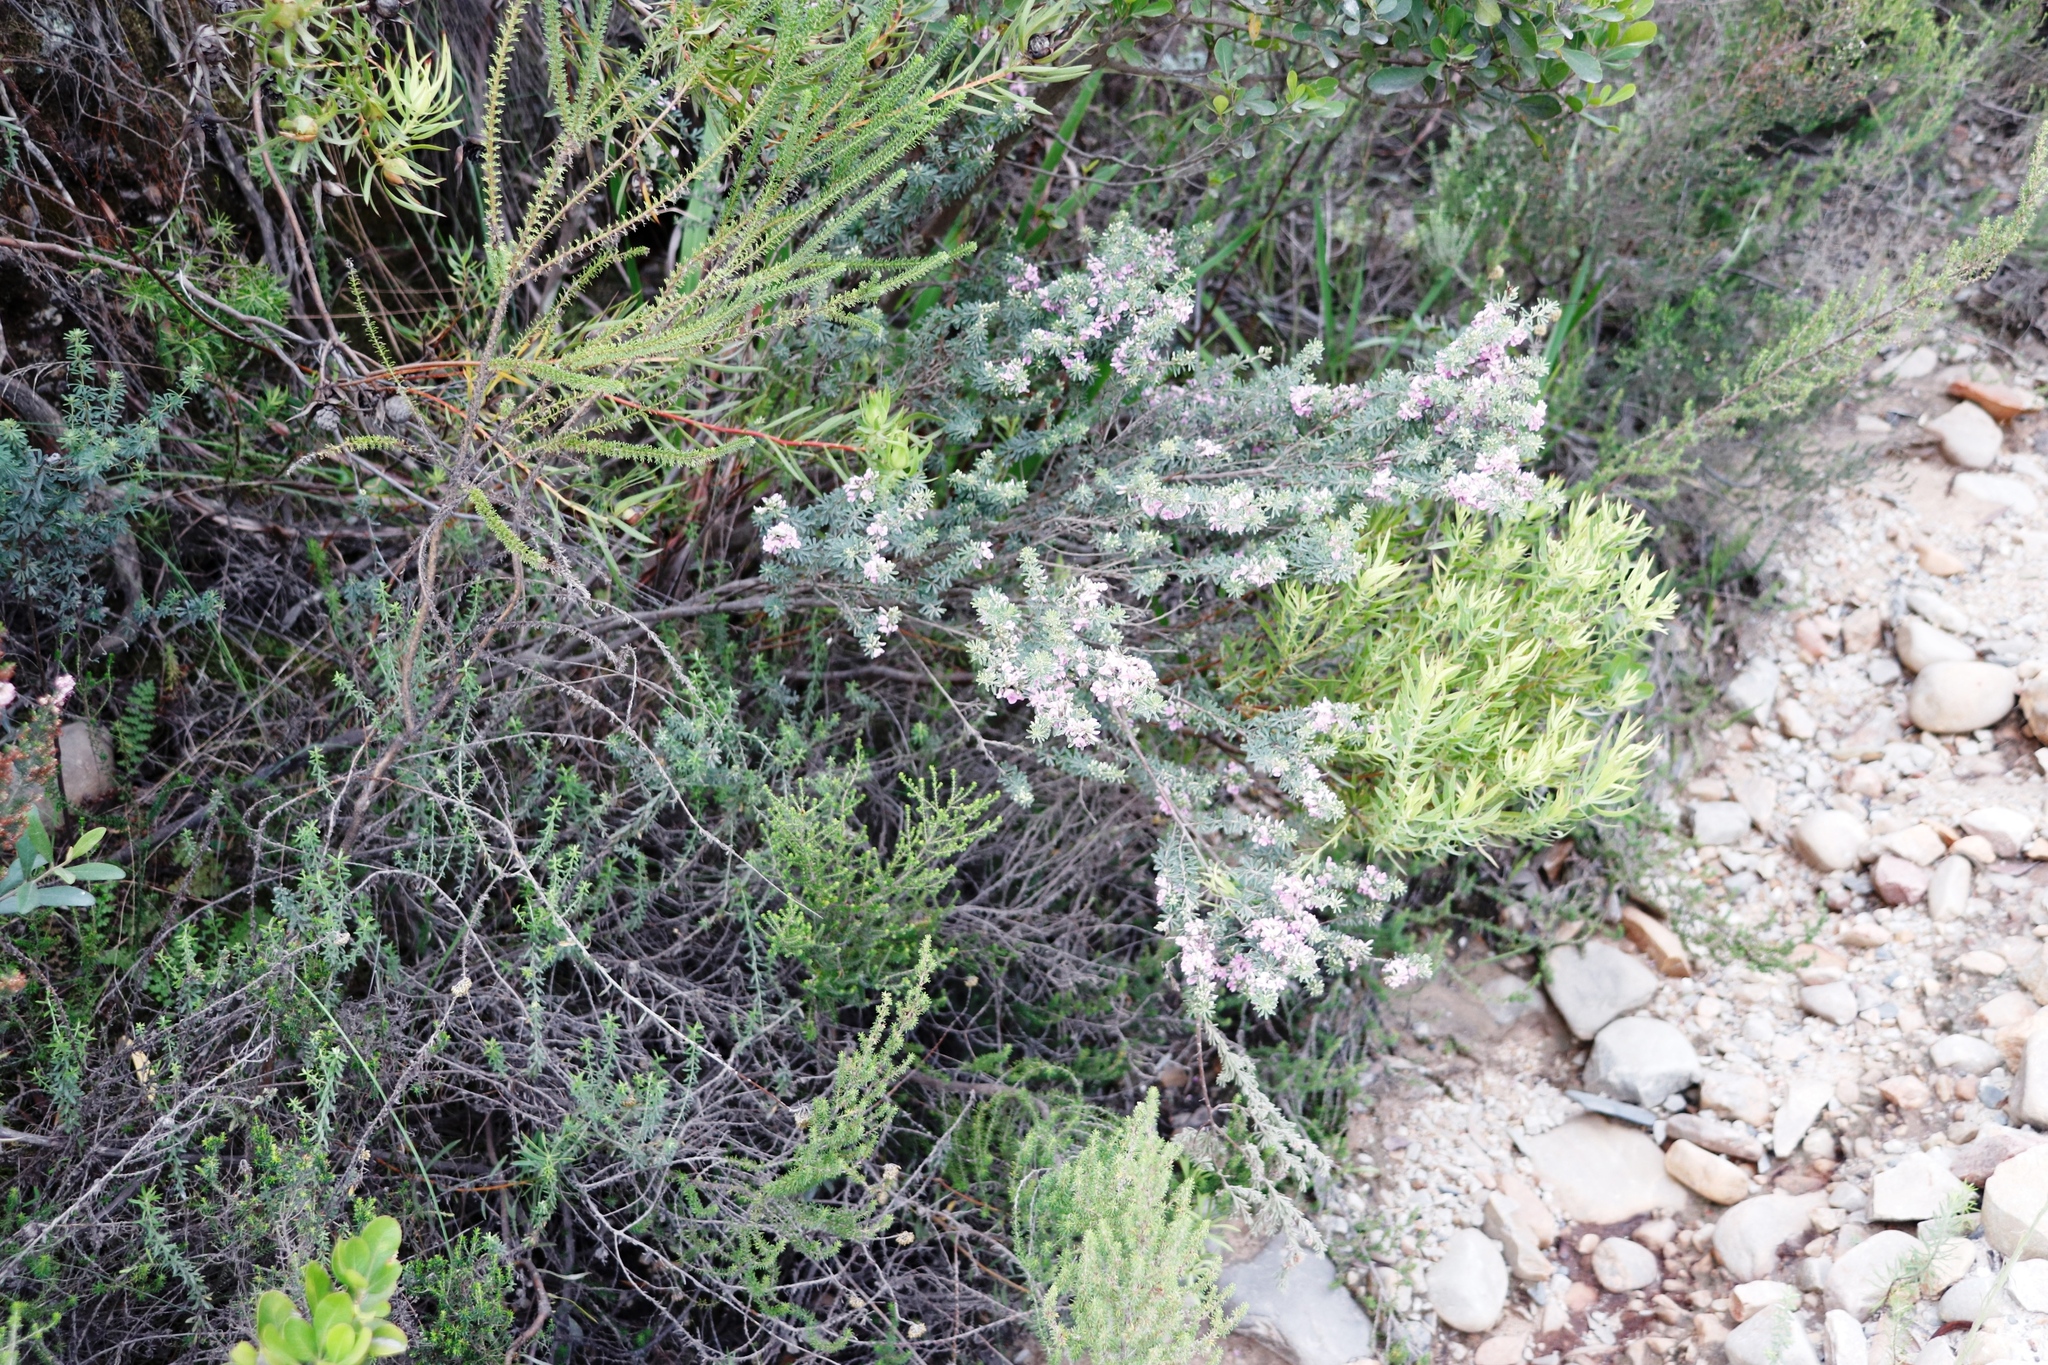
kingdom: Plantae
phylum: Tracheophyta
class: Magnoliopsida
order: Fabales
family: Fabaceae
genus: Indigofera
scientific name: Indigofera flabellata
